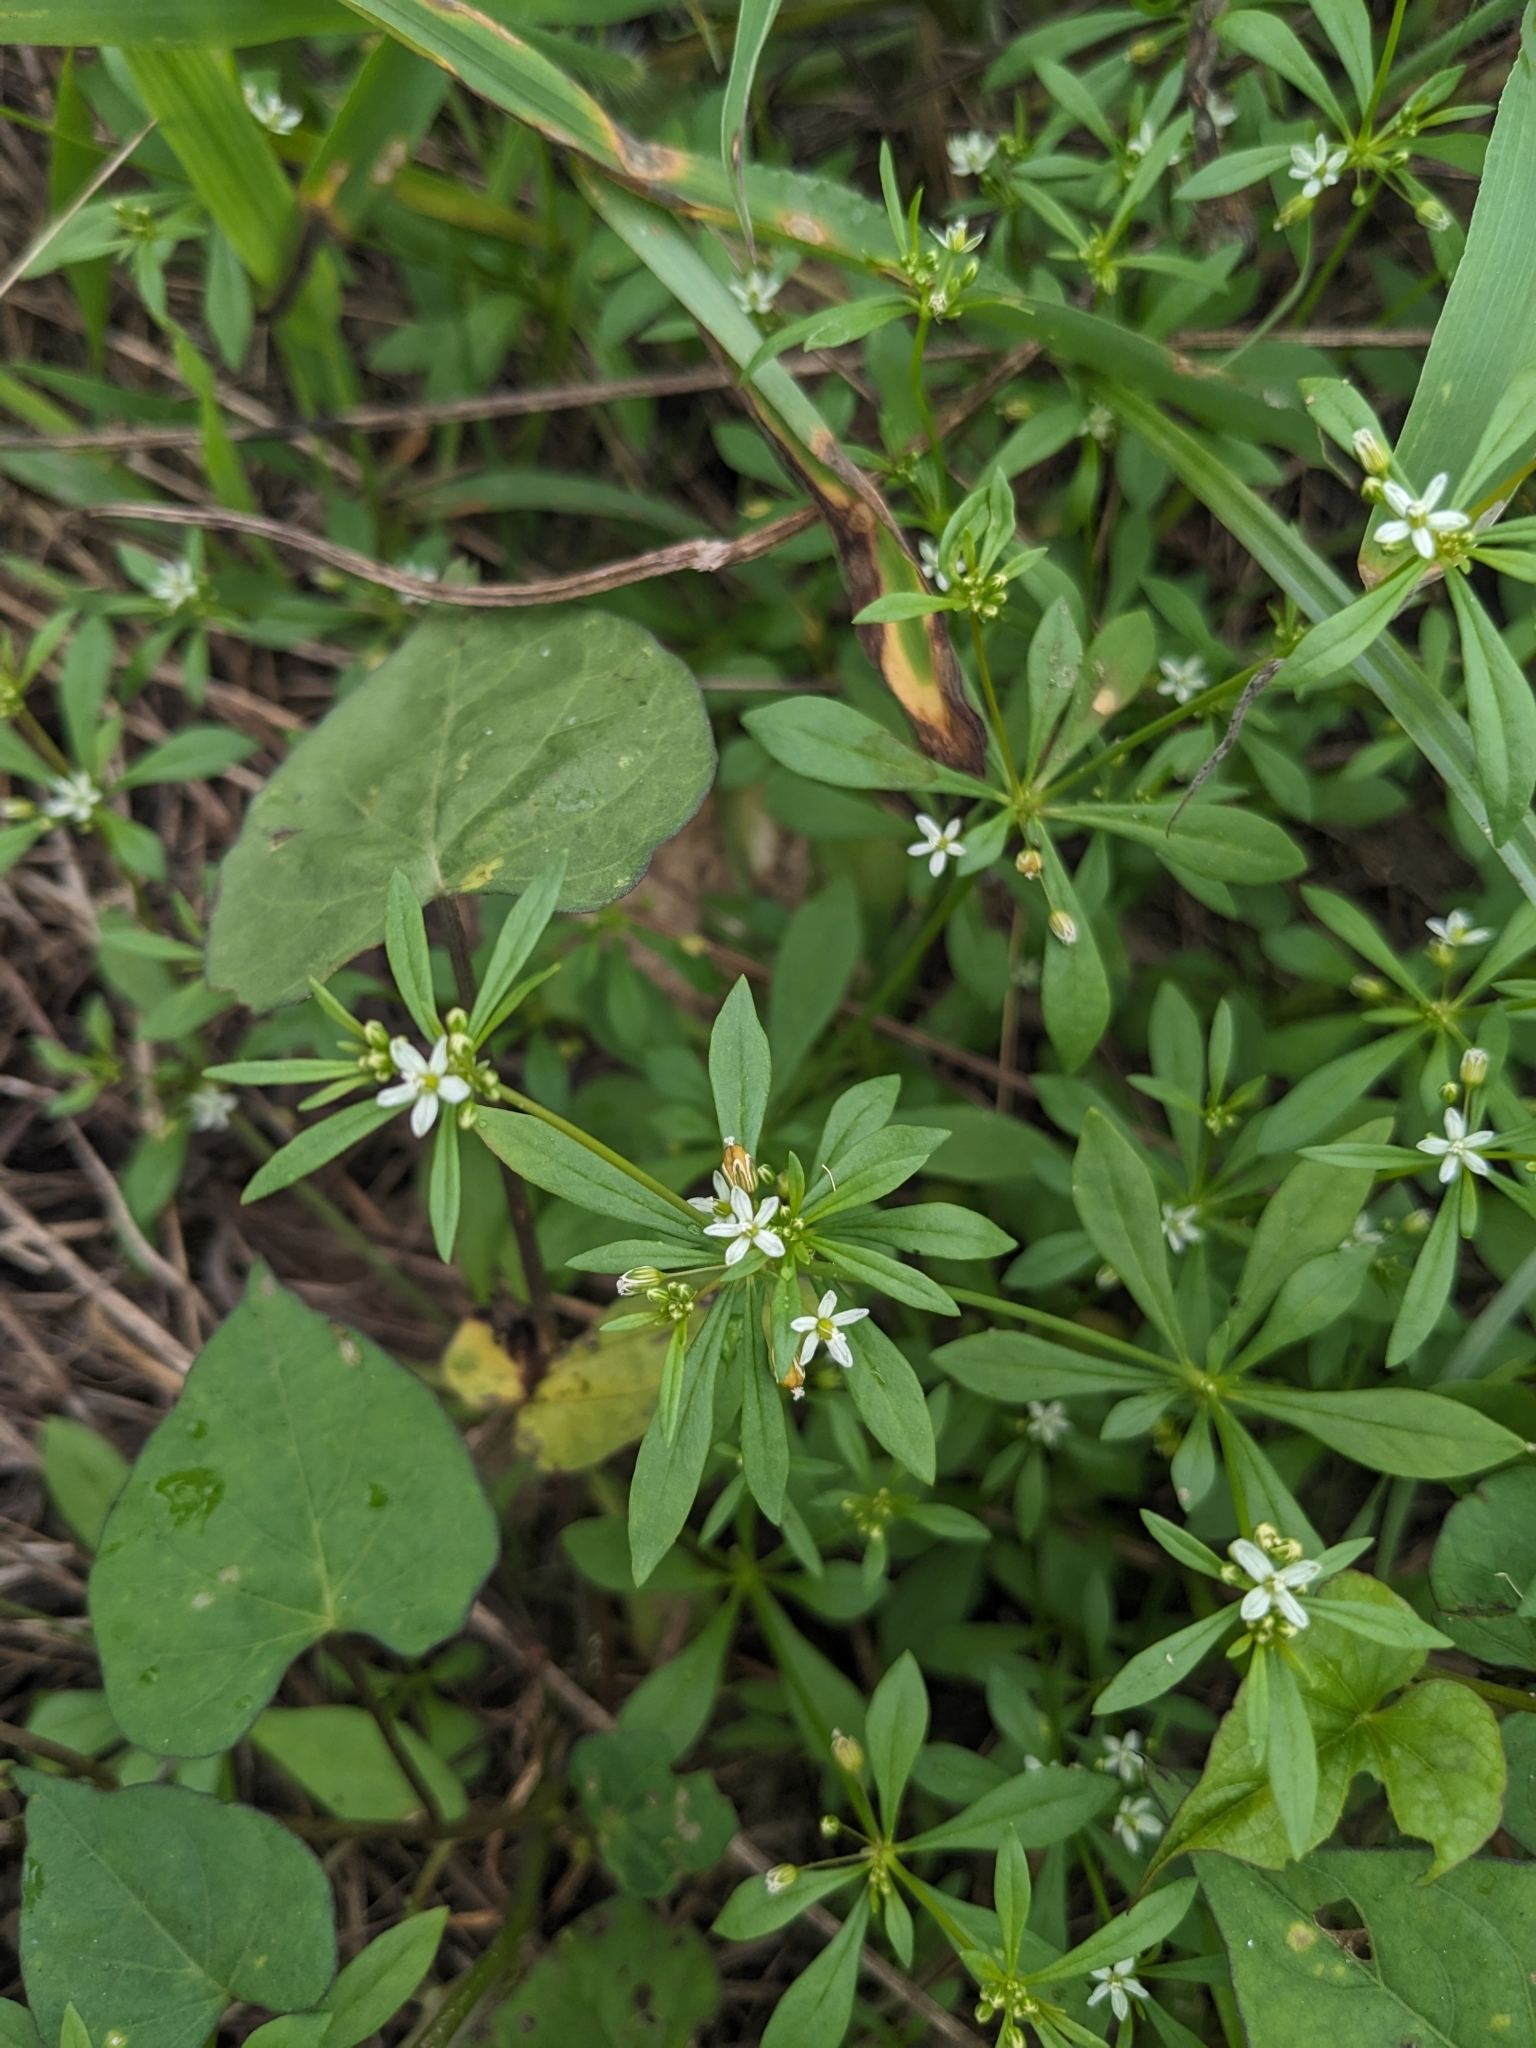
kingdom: Plantae
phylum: Tracheophyta
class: Magnoliopsida
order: Caryophyllales
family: Molluginaceae
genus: Mollugo
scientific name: Mollugo verticillata
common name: Green carpetweed
